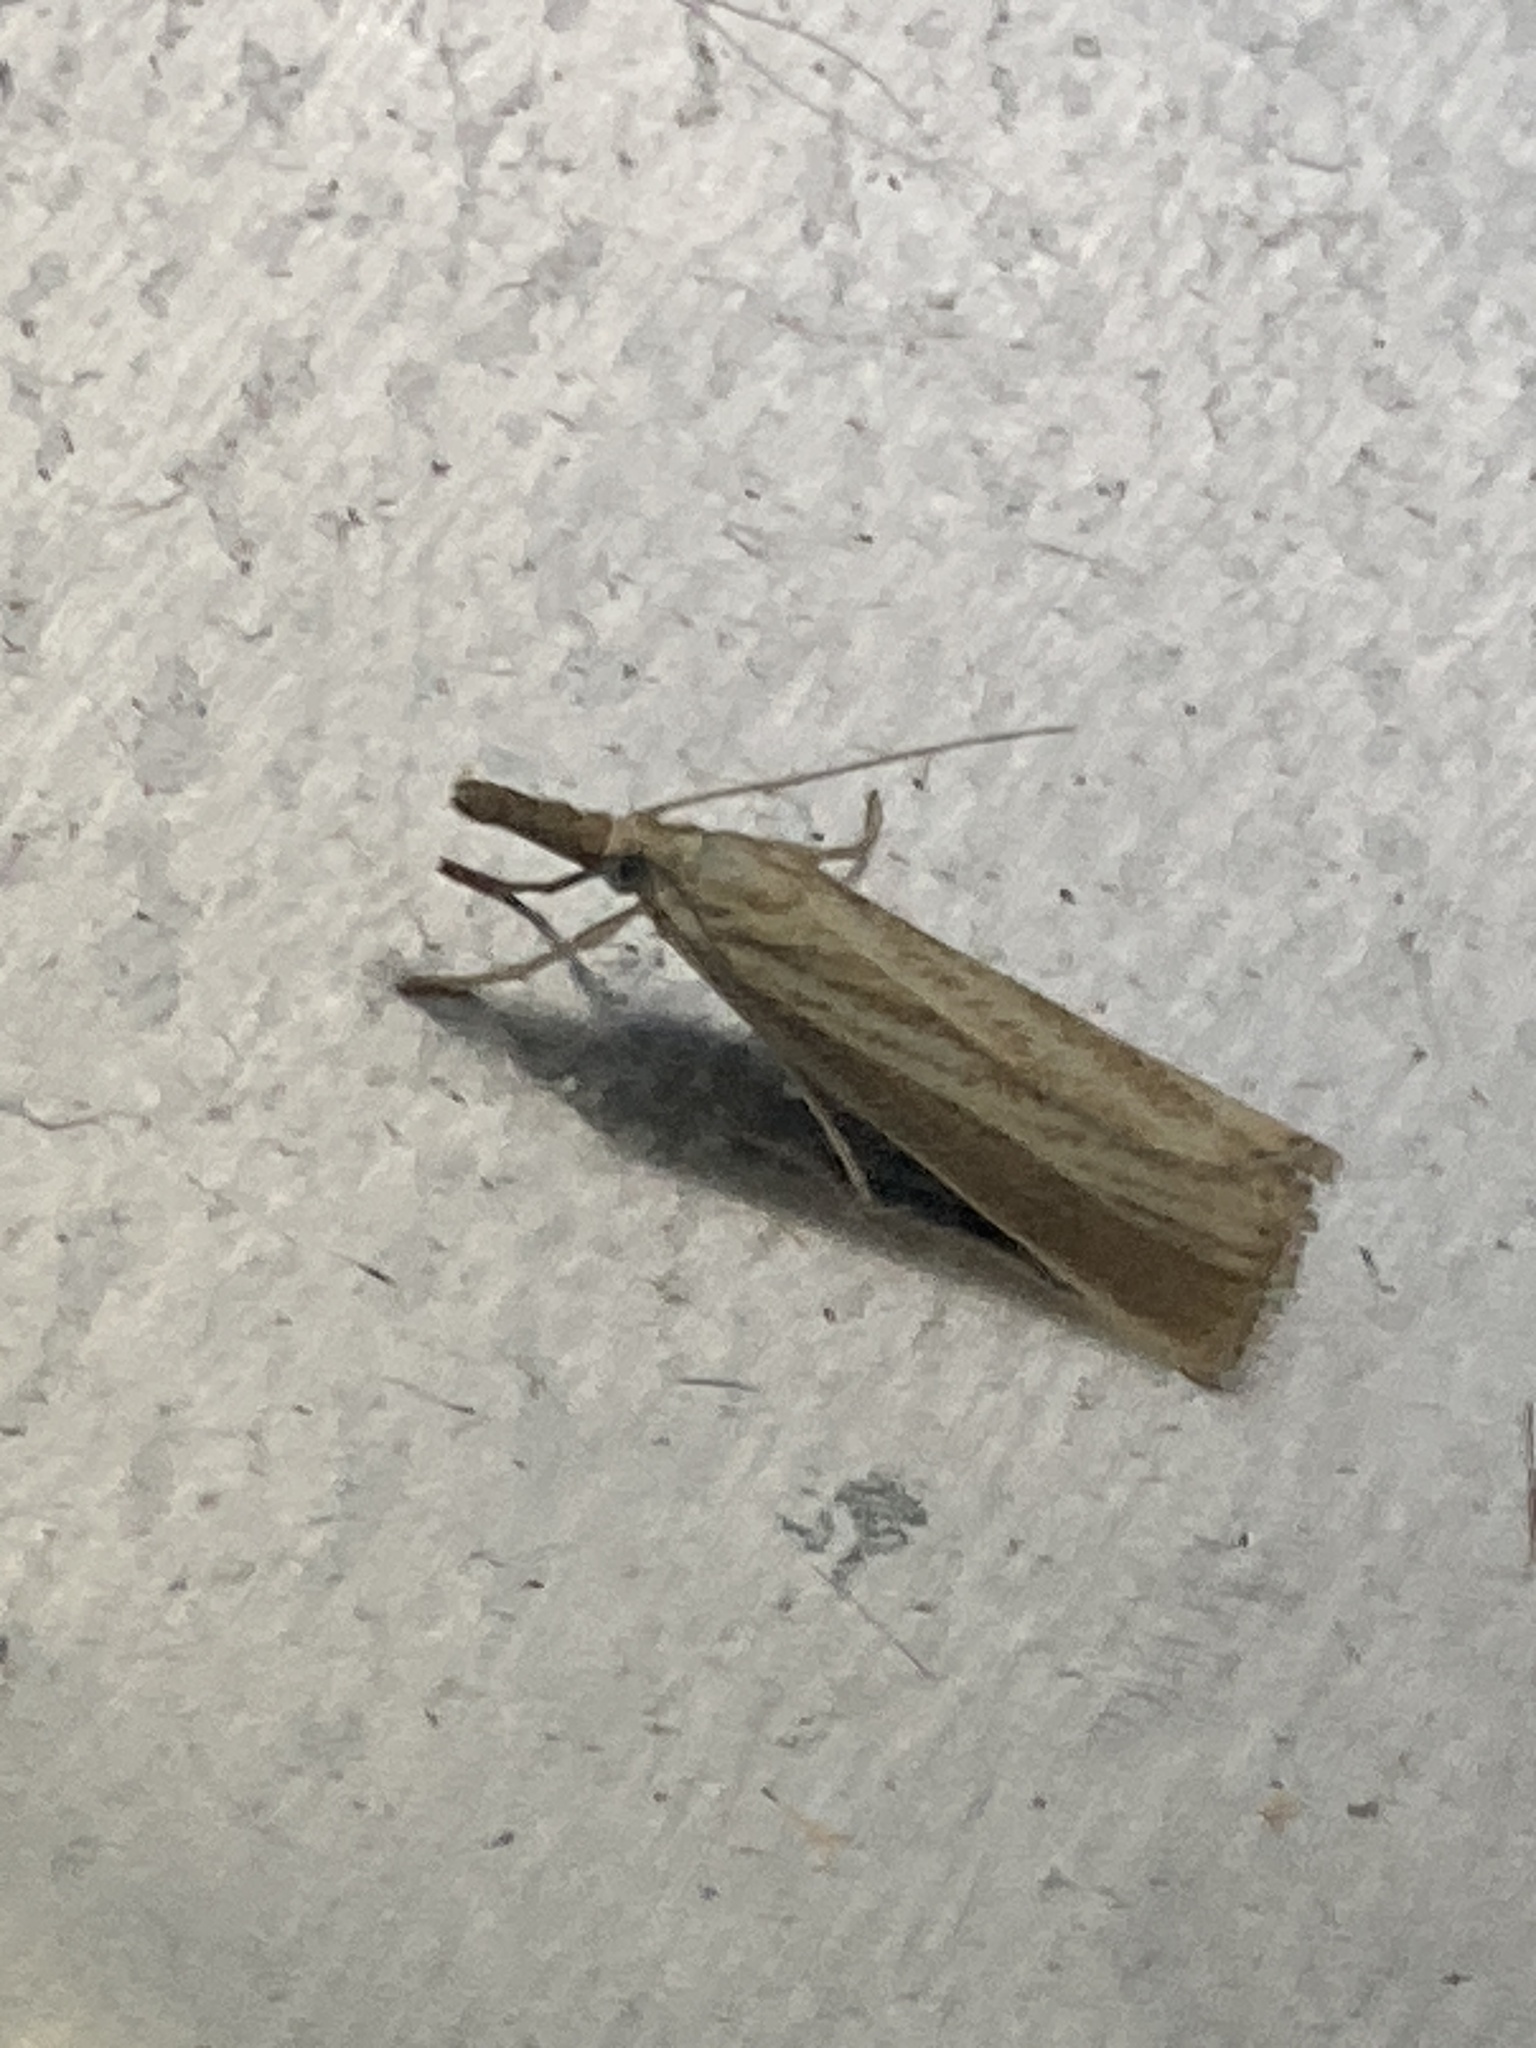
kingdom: Animalia
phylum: Arthropoda
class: Insecta
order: Lepidoptera
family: Crambidae
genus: Agriphila
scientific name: Agriphila straminella
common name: Straw grass-veneer
